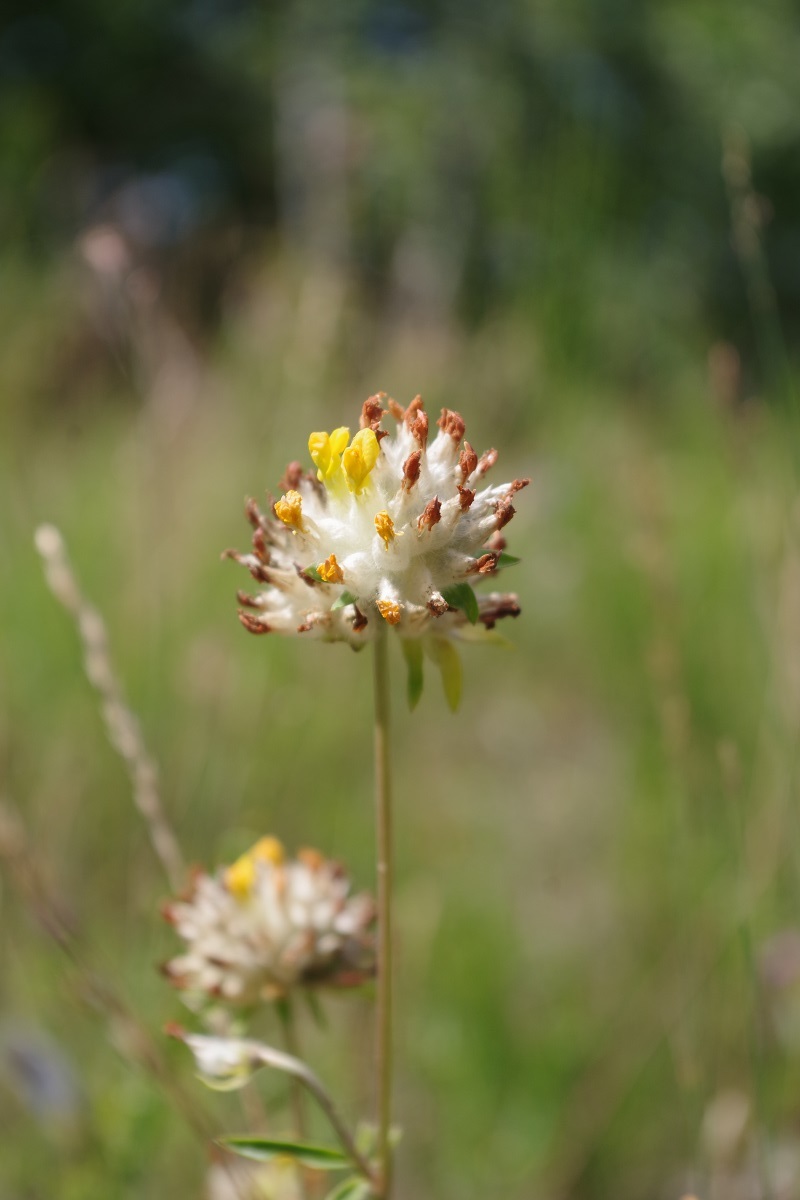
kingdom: Plantae
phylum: Tracheophyta
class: Magnoliopsida
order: Fabales
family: Fabaceae
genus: Anthyllis
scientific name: Anthyllis vulneraria
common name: Kidney vetch
